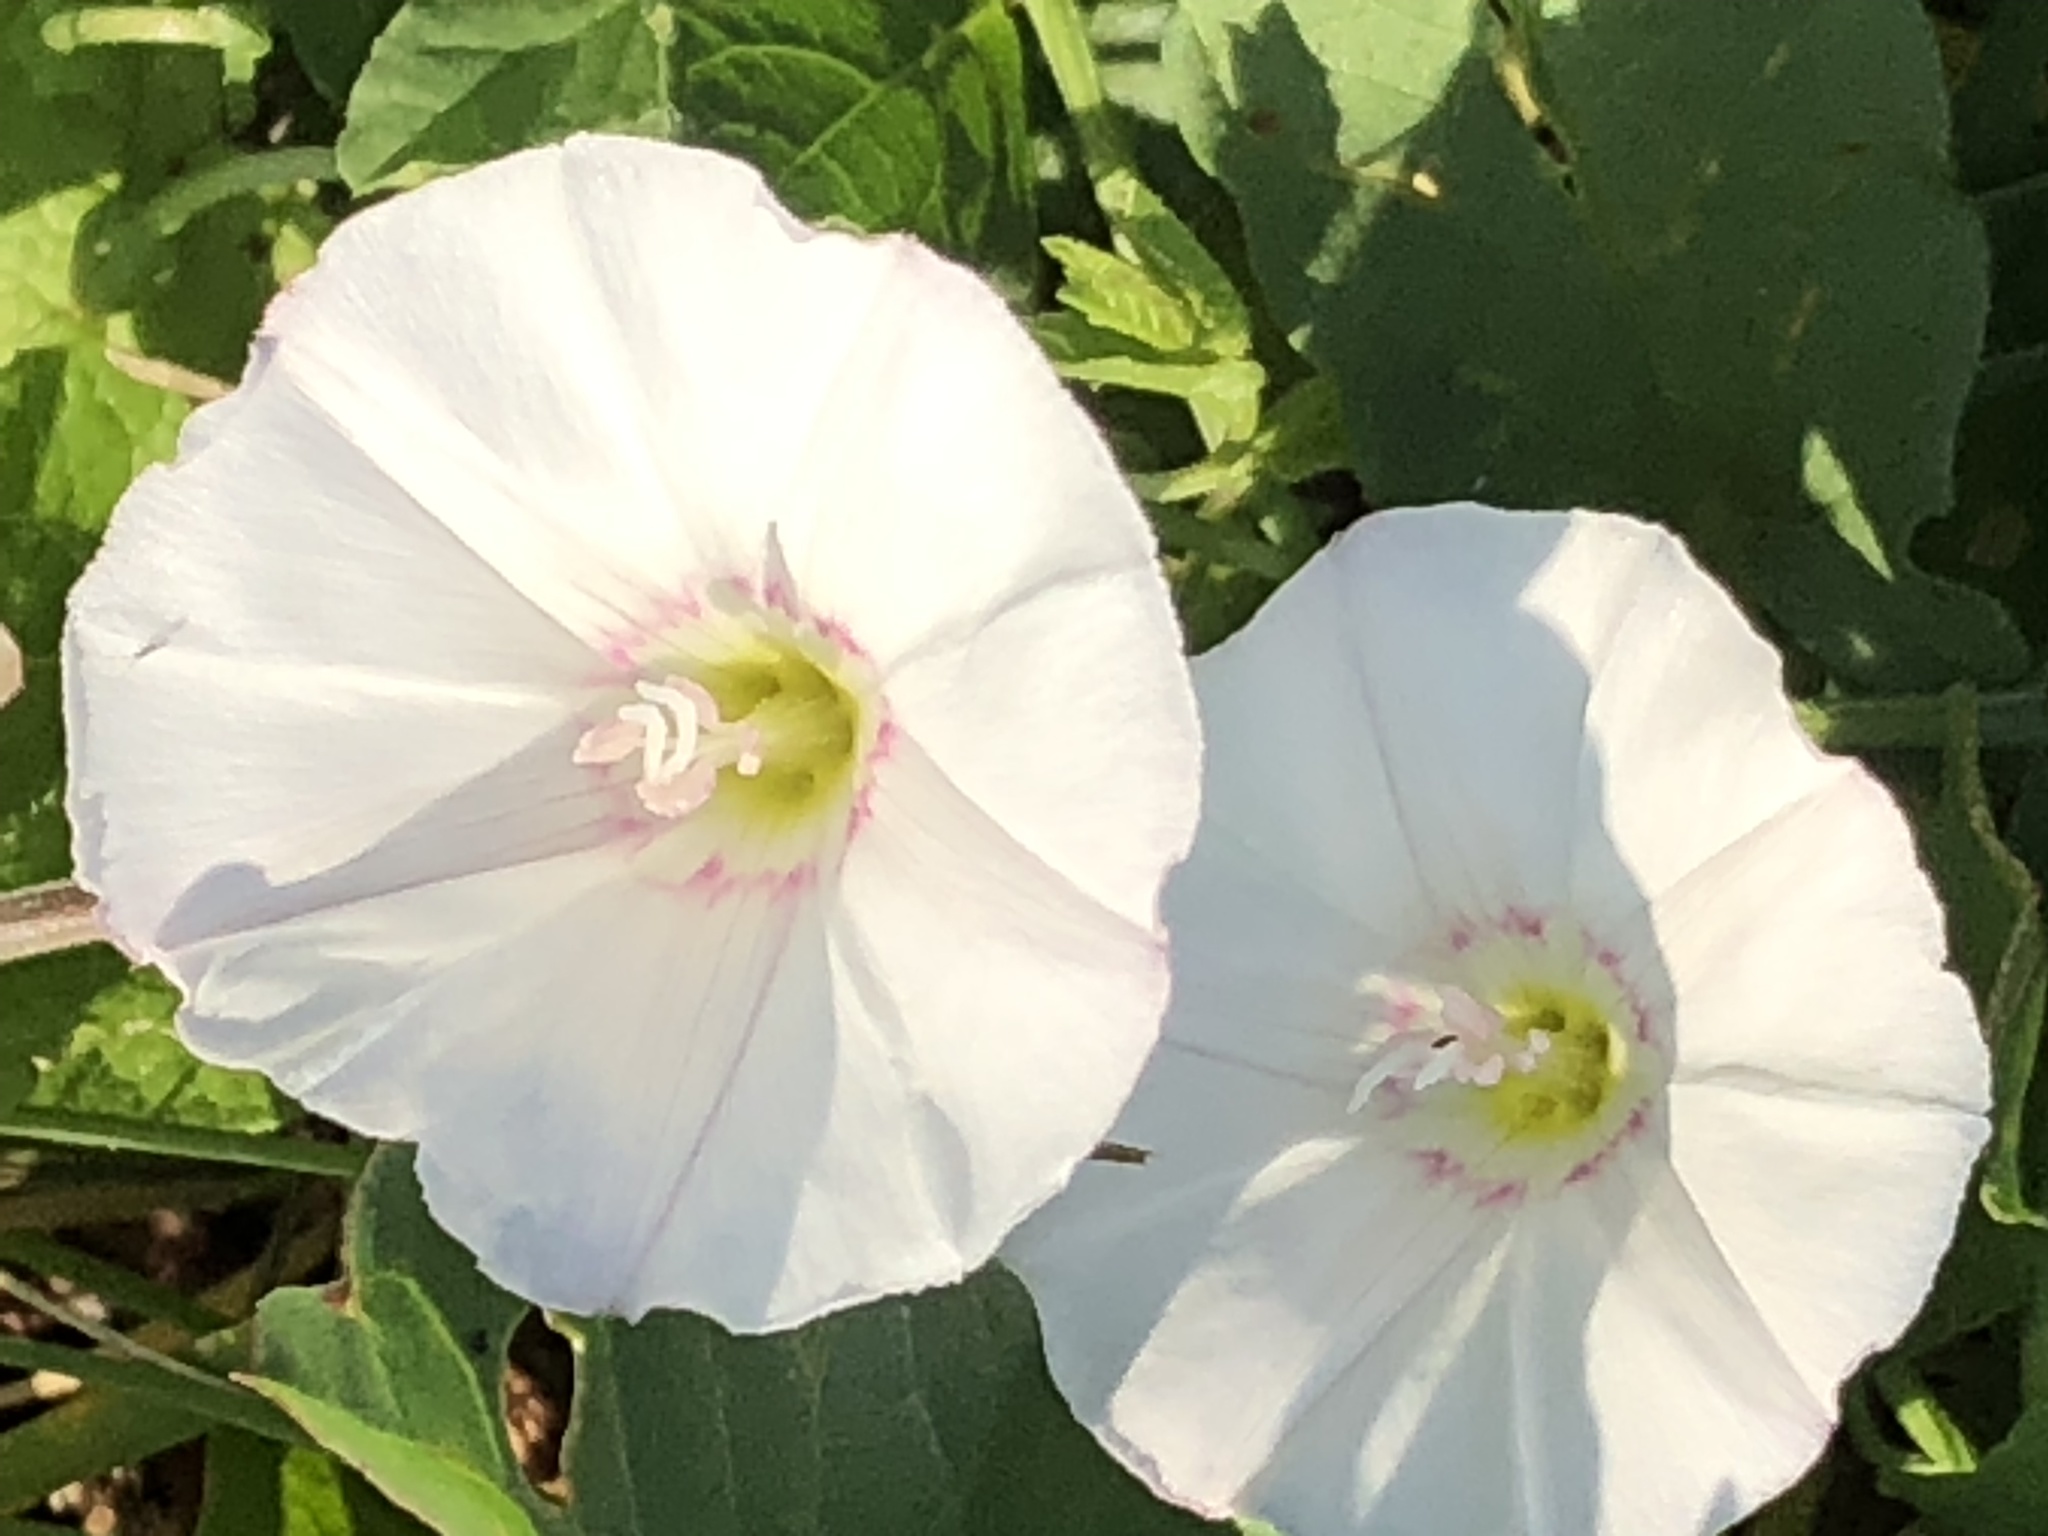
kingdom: Plantae
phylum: Tracheophyta
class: Magnoliopsida
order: Solanales
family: Convolvulaceae
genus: Convolvulus
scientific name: Convolvulus arvensis
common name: Field bindweed
